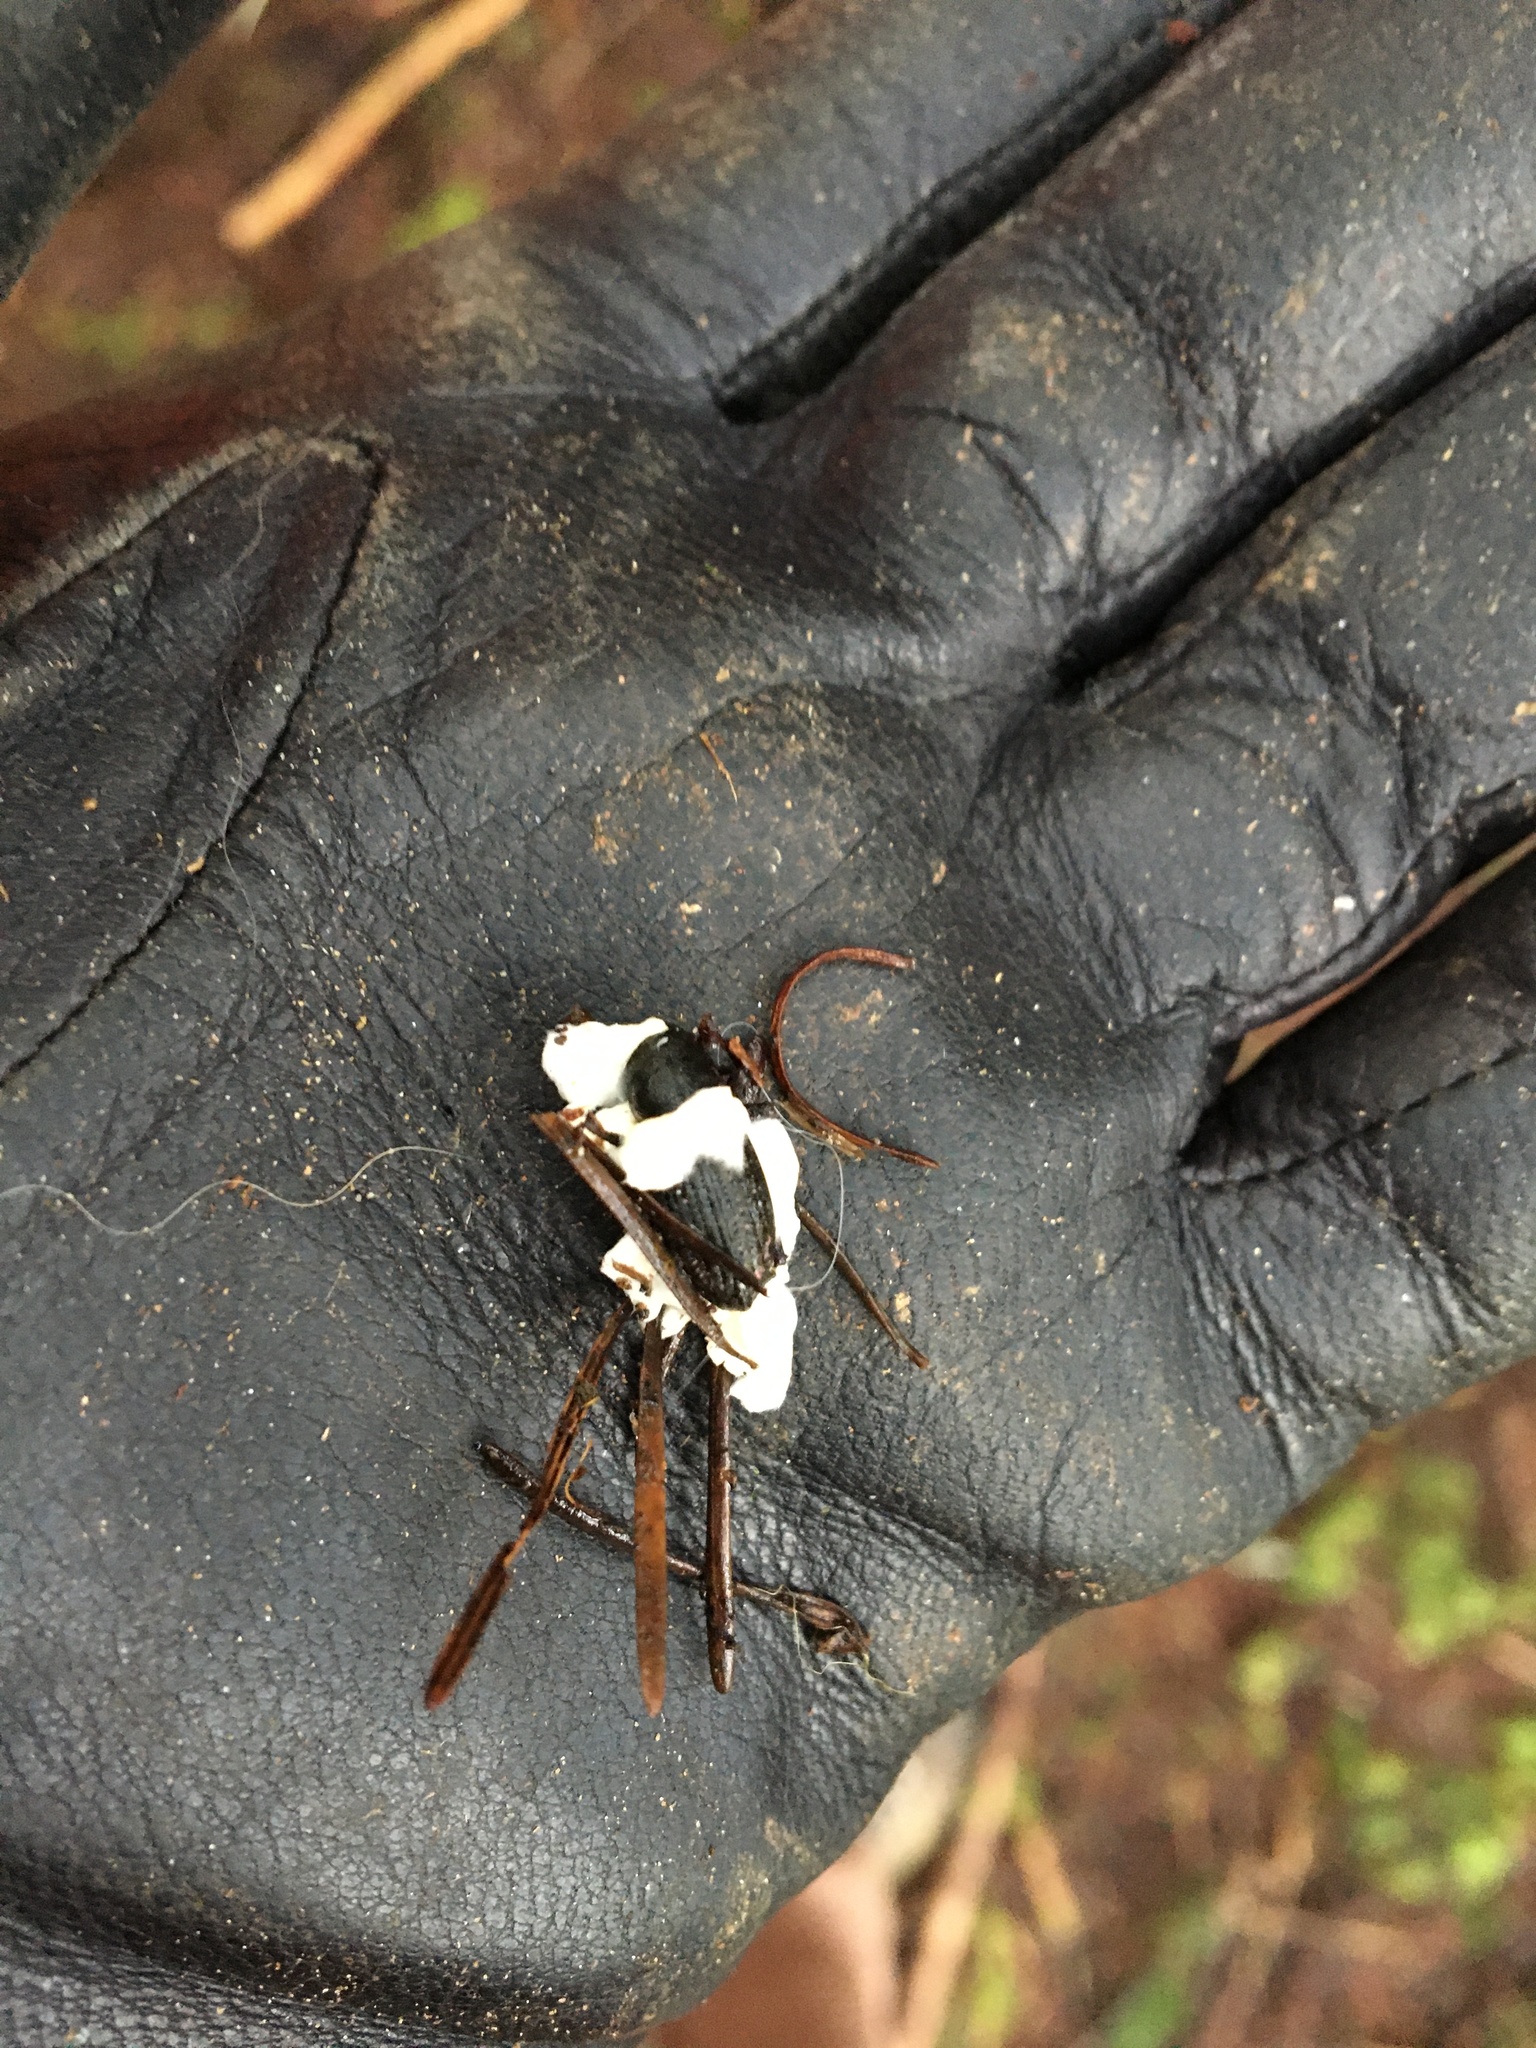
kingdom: Fungi
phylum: Ascomycota
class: Sordariomycetes
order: Hypocreales
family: Cordycipitaceae
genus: Beauveria
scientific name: Beauveria bassiana
